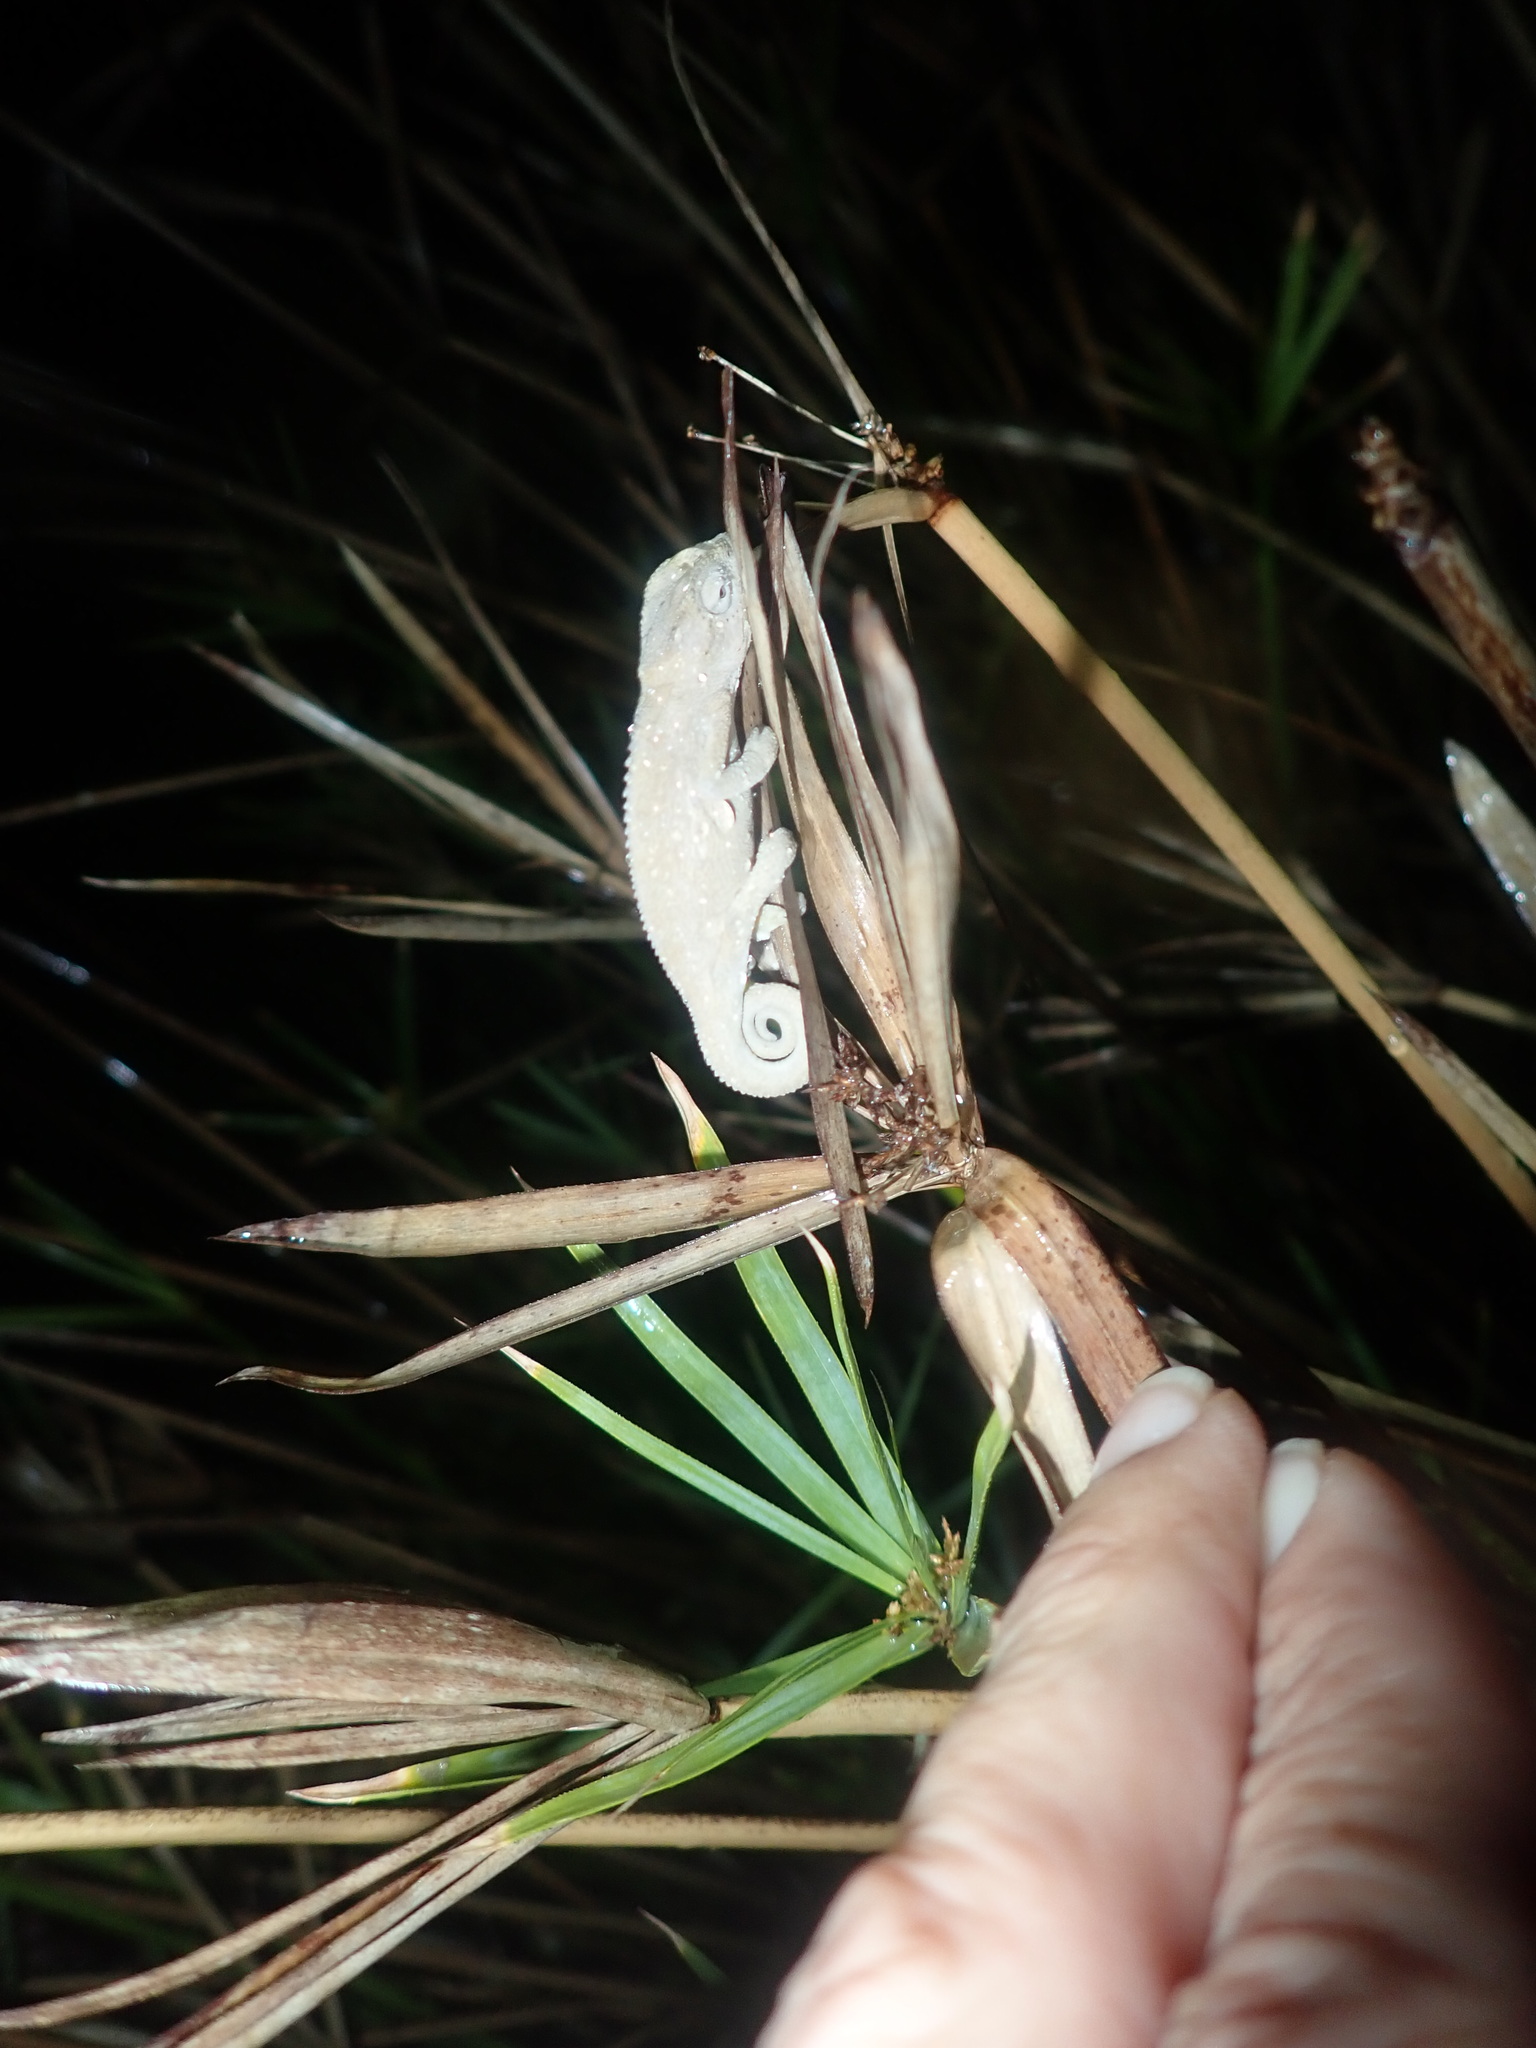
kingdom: Animalia
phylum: Chordata
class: Squamata
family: Chamaeleonidae
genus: Bradypodion
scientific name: Bradypodion pumilum
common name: Cape dwarf chameleon
